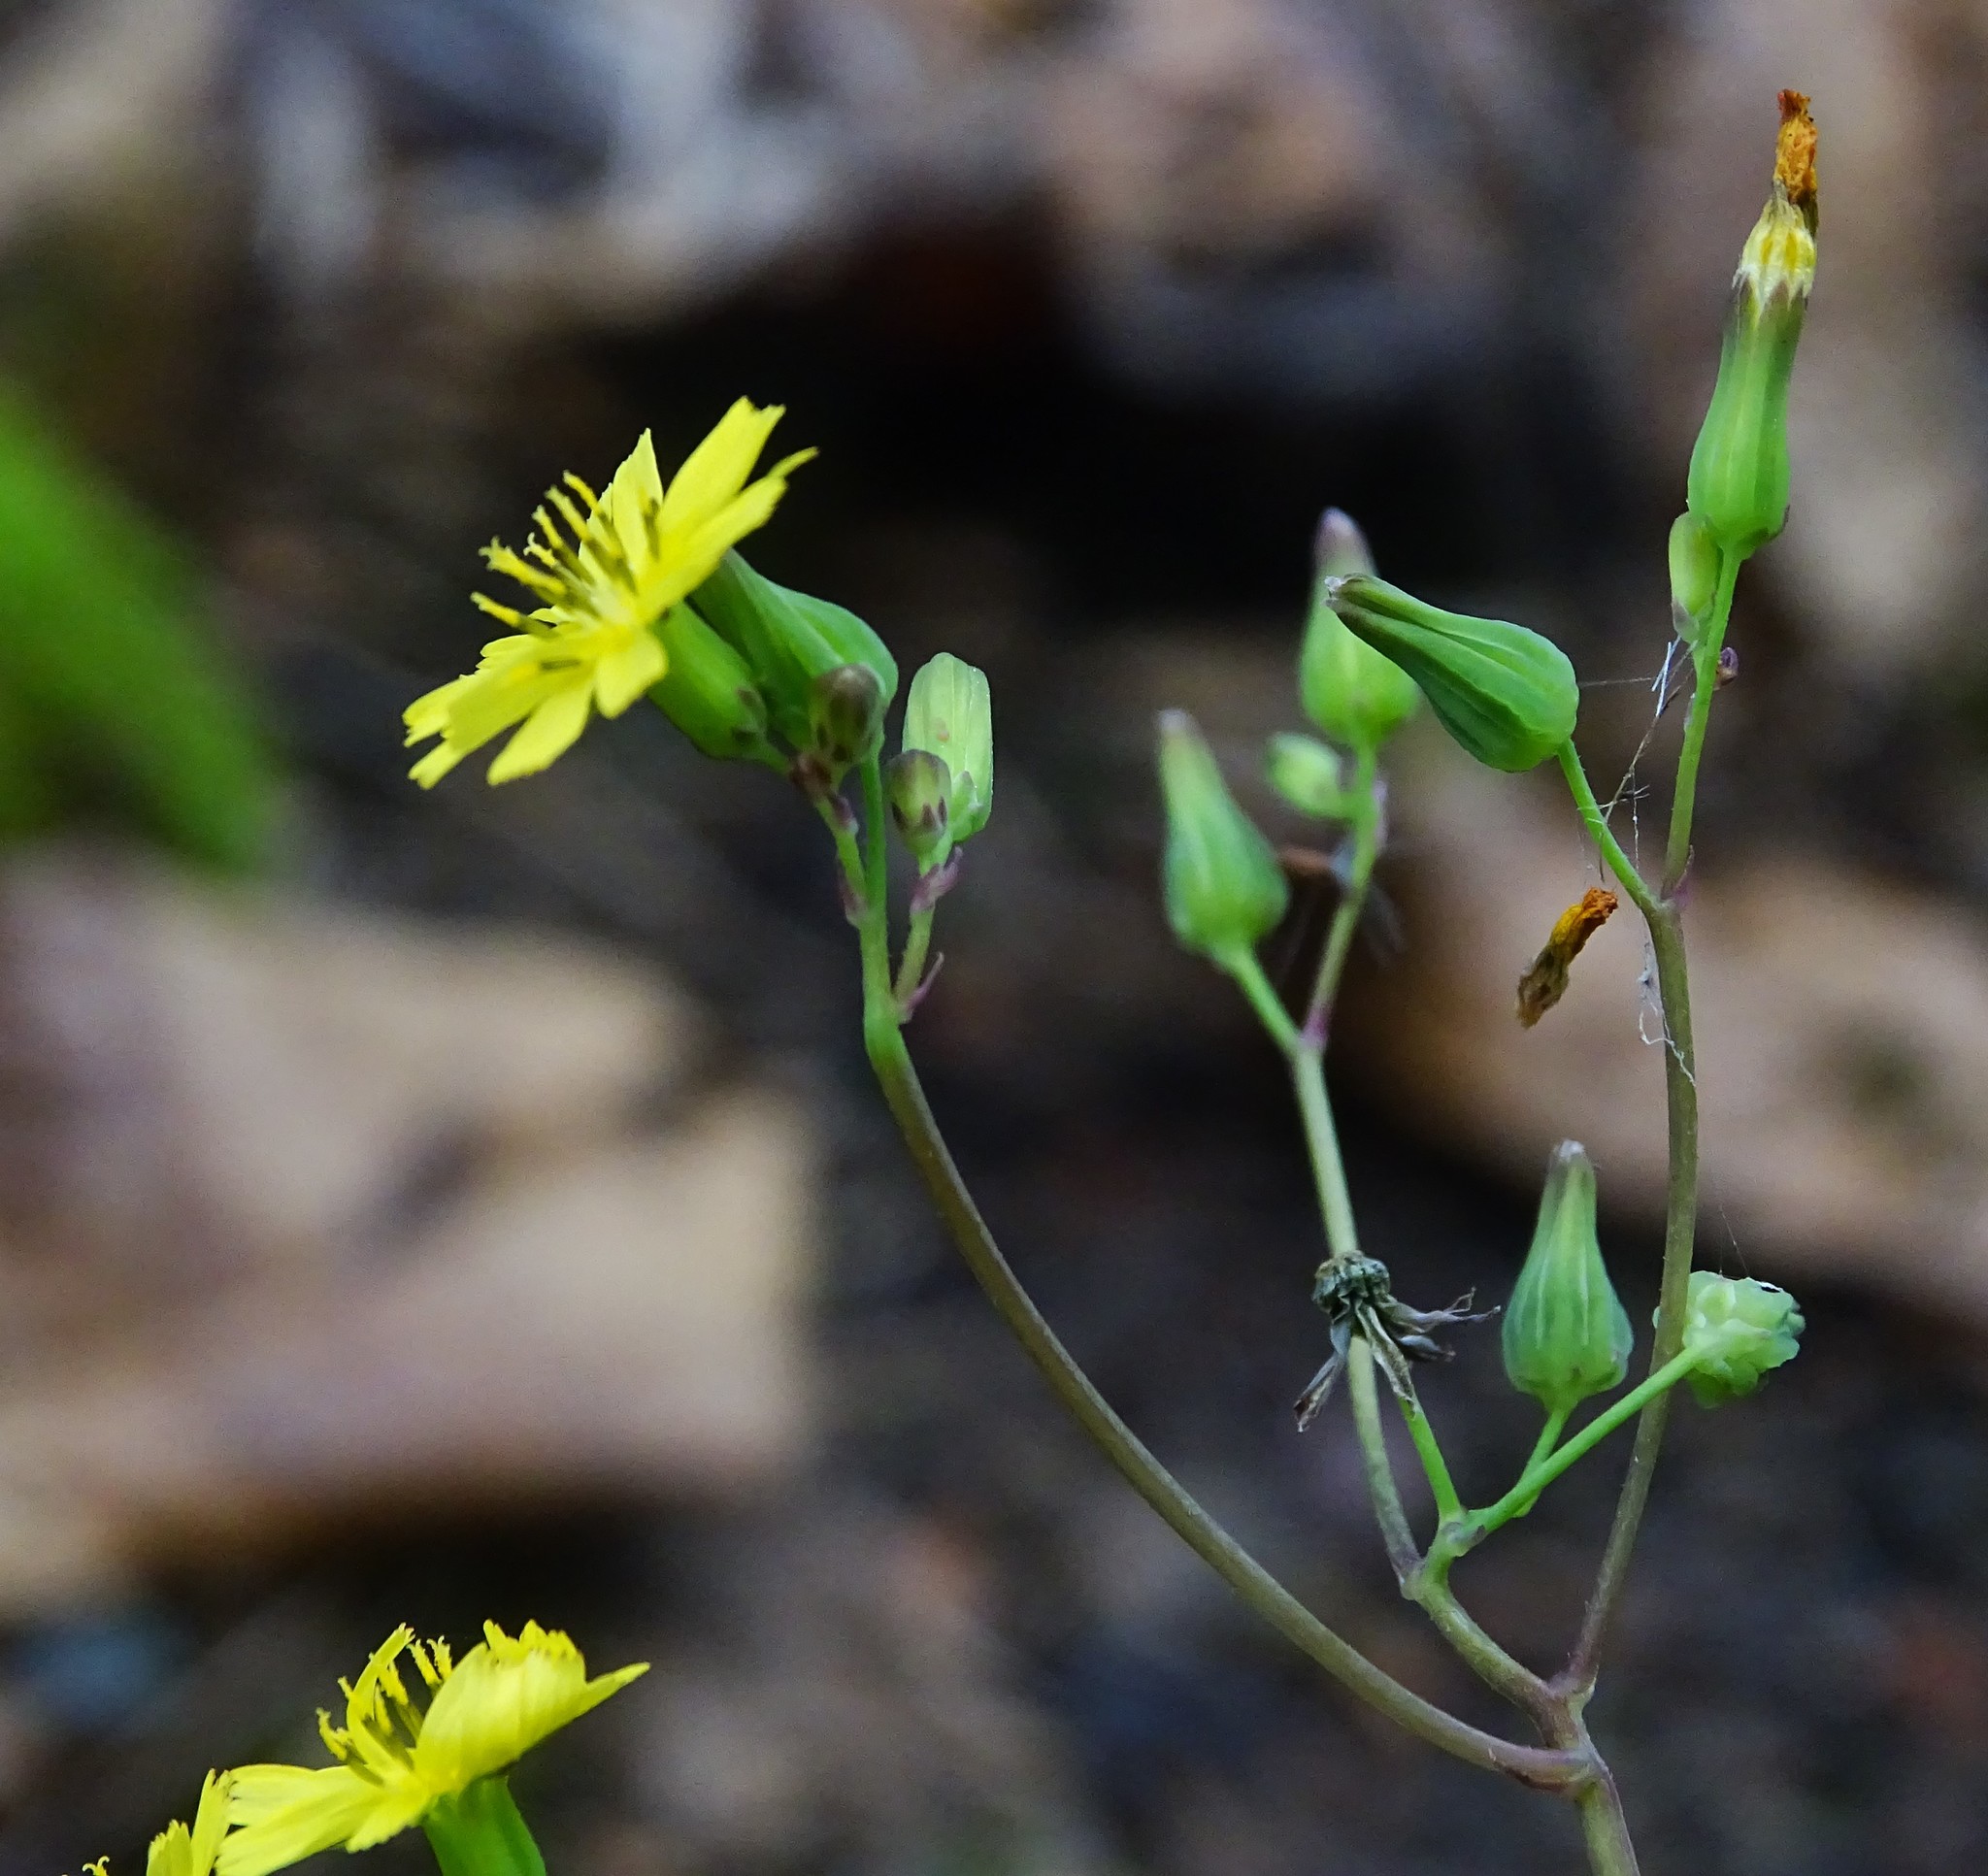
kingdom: Plantae
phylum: Tracheophyta
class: Magnoliopsida
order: Asterales
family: Asteraceae
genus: Youngia
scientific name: Youngia japonica
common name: Oriental false hawksbeard
